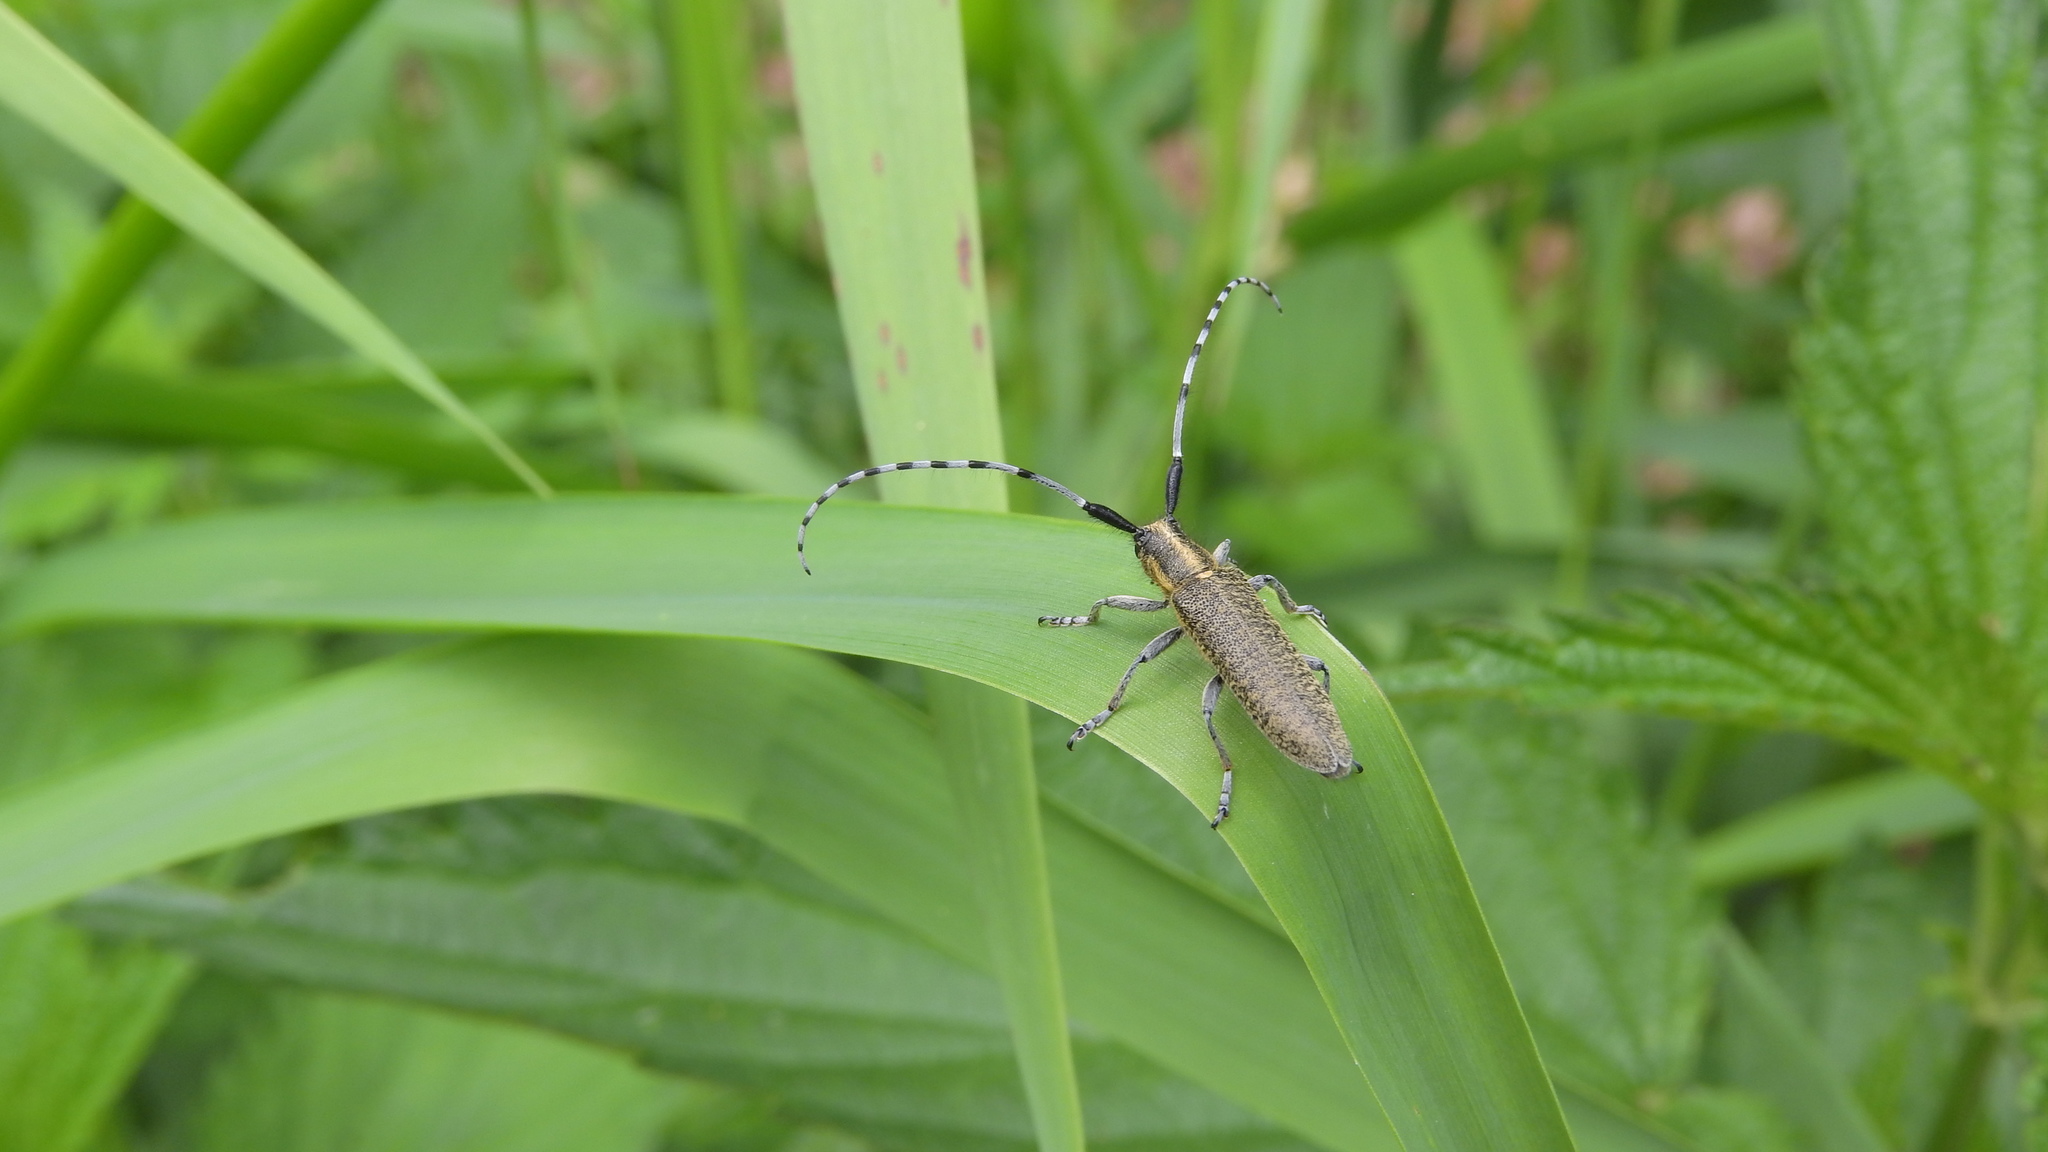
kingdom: Animalia
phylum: Arthropoda
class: Insecta
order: Coleoptera
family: Cerambycidae
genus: Agapanthia
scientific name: Agapanthia villosoviridescens
